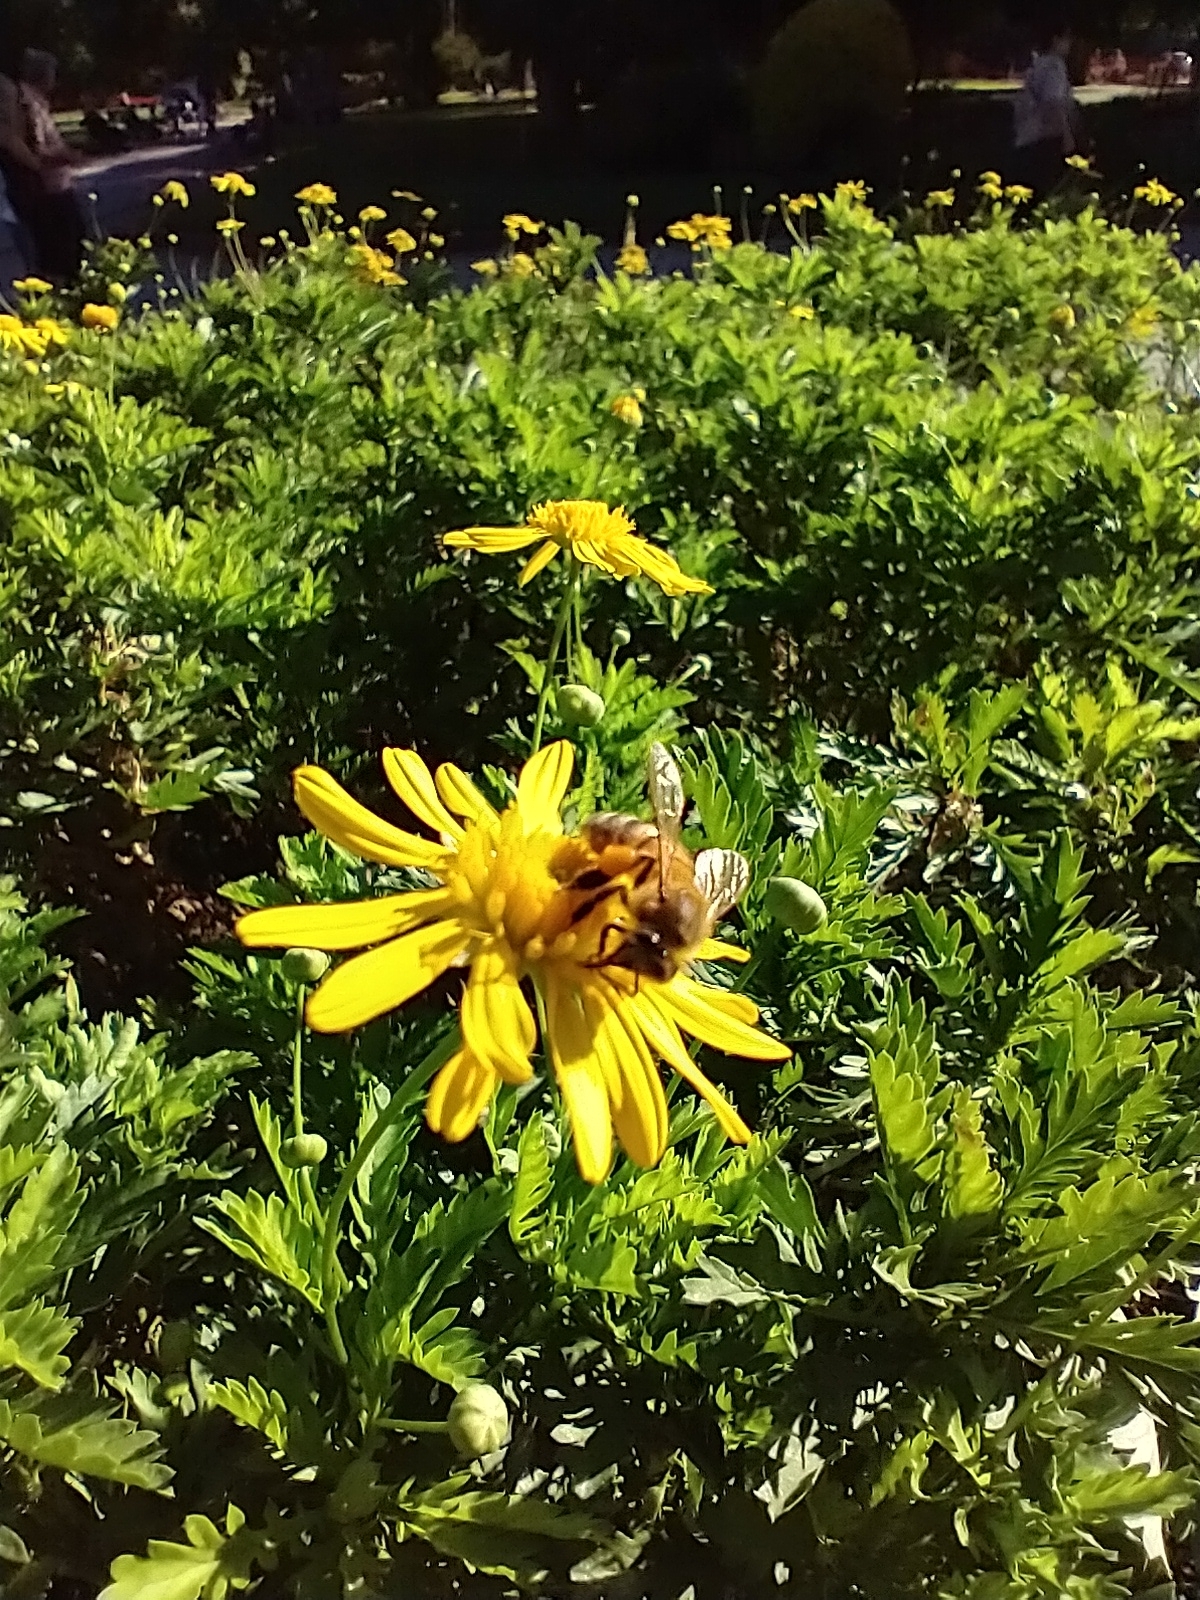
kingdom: Animalia
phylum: Arthropoda
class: Insecta
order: Hymenoptera
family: Apidae
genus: Apis
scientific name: Apis mellifera
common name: Honey bee
